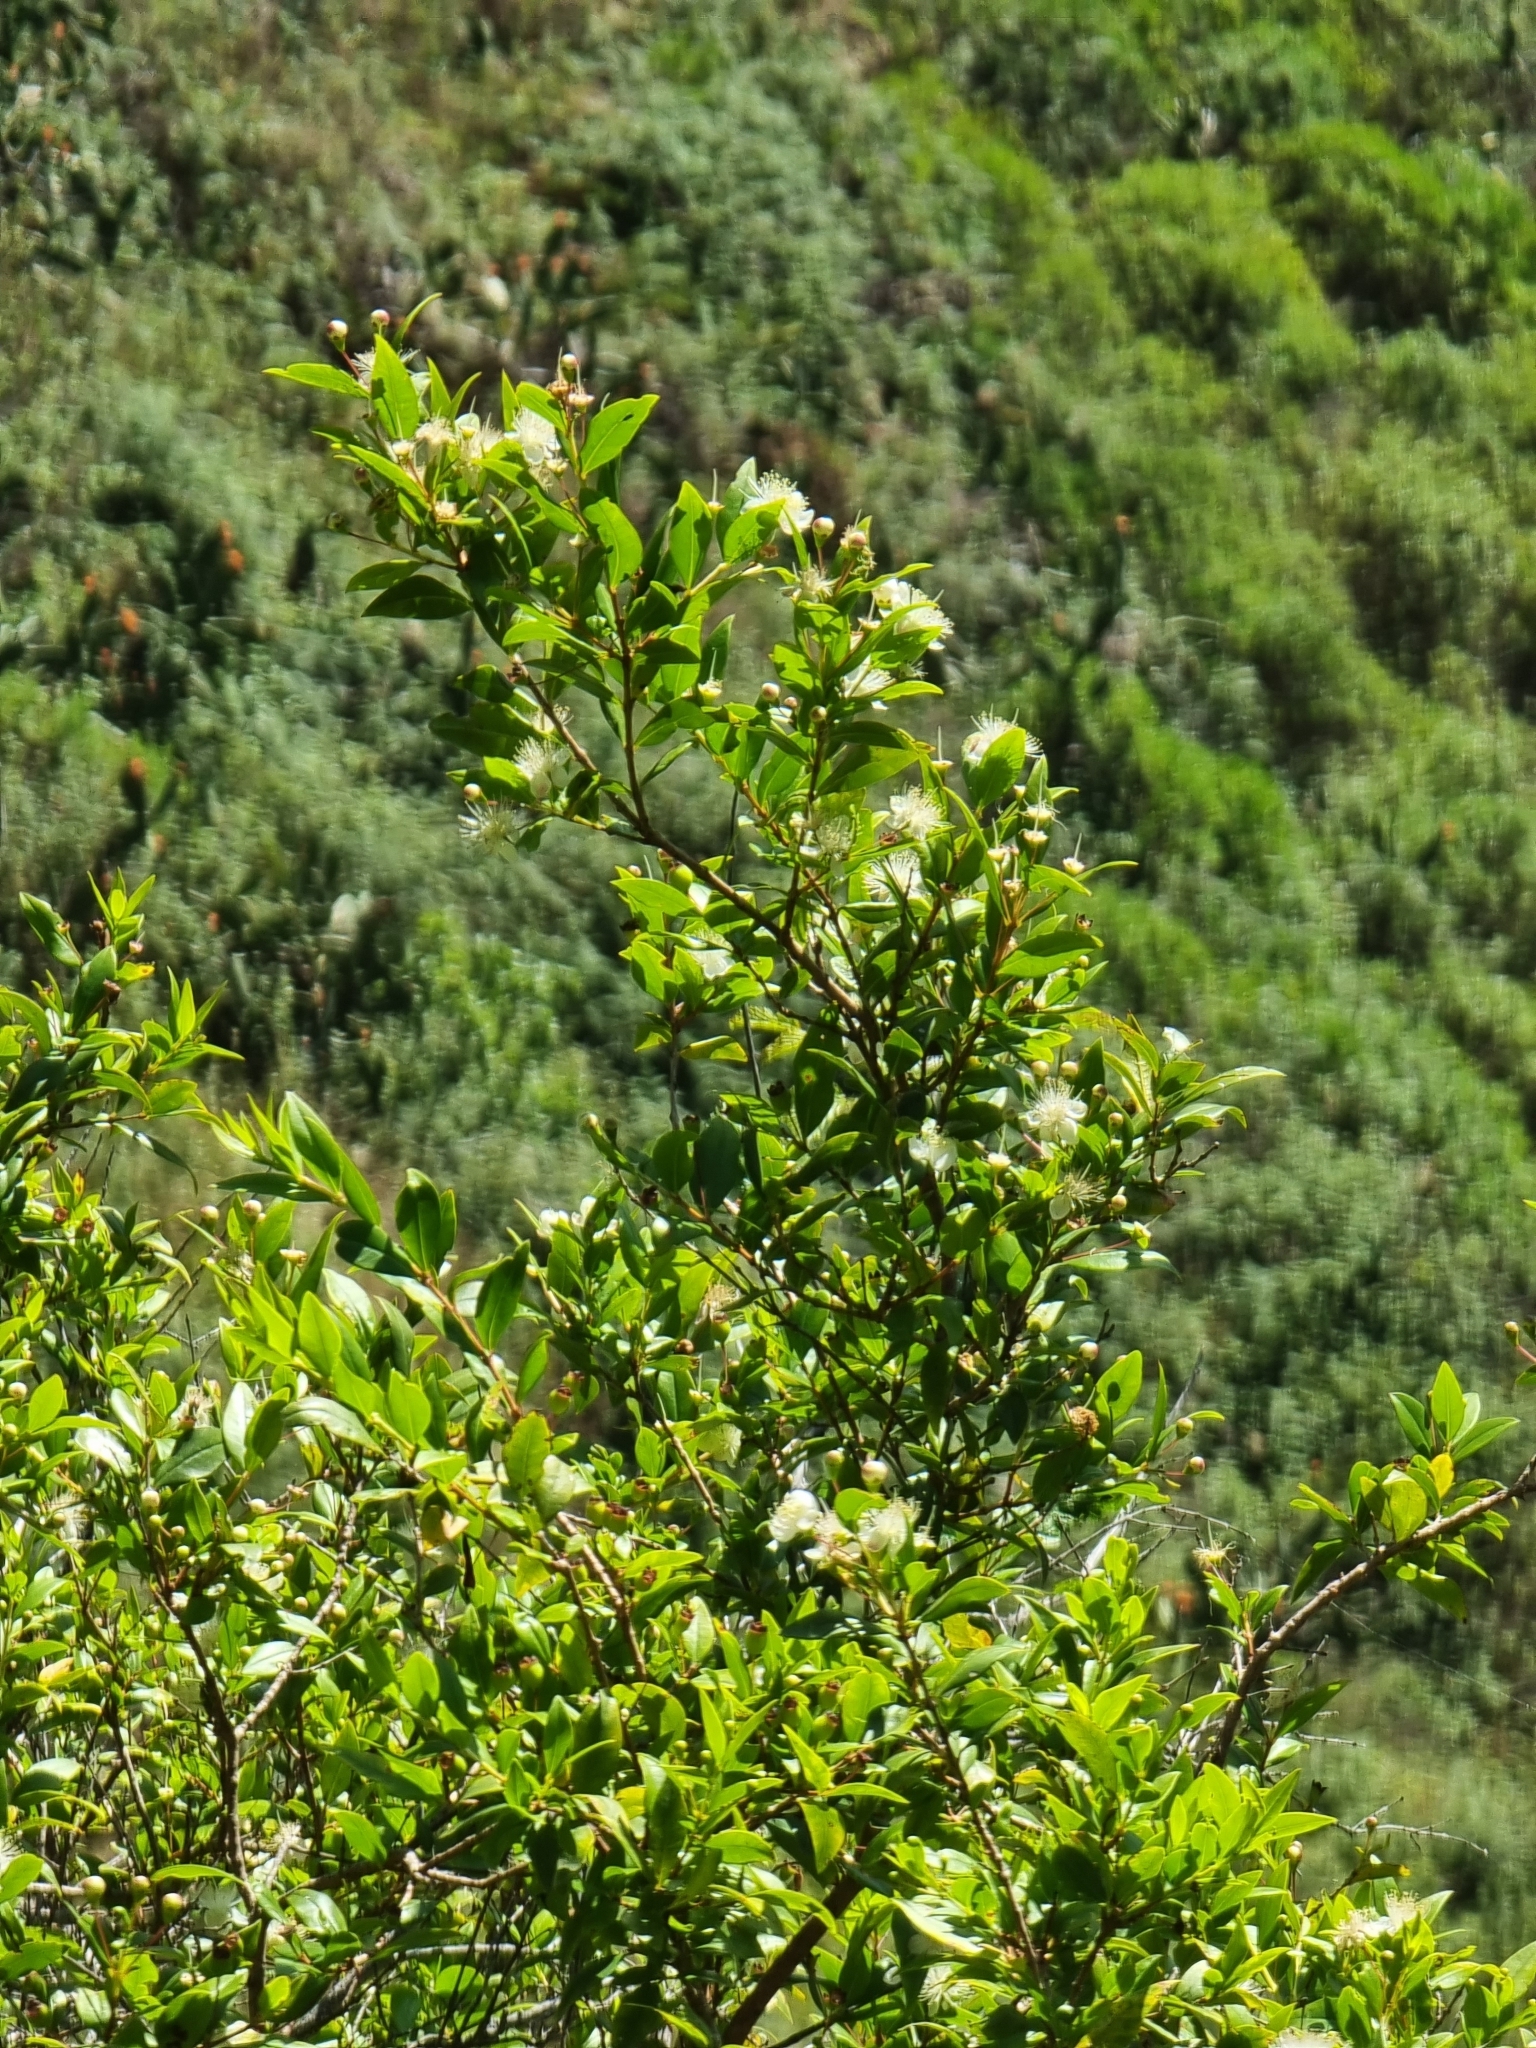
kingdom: Plantae
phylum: Tracheophyta
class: Magnoliopsida
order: Myrtales
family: Myrtaceae
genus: Myrtus
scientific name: Myrtus communis
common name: Myrtle
